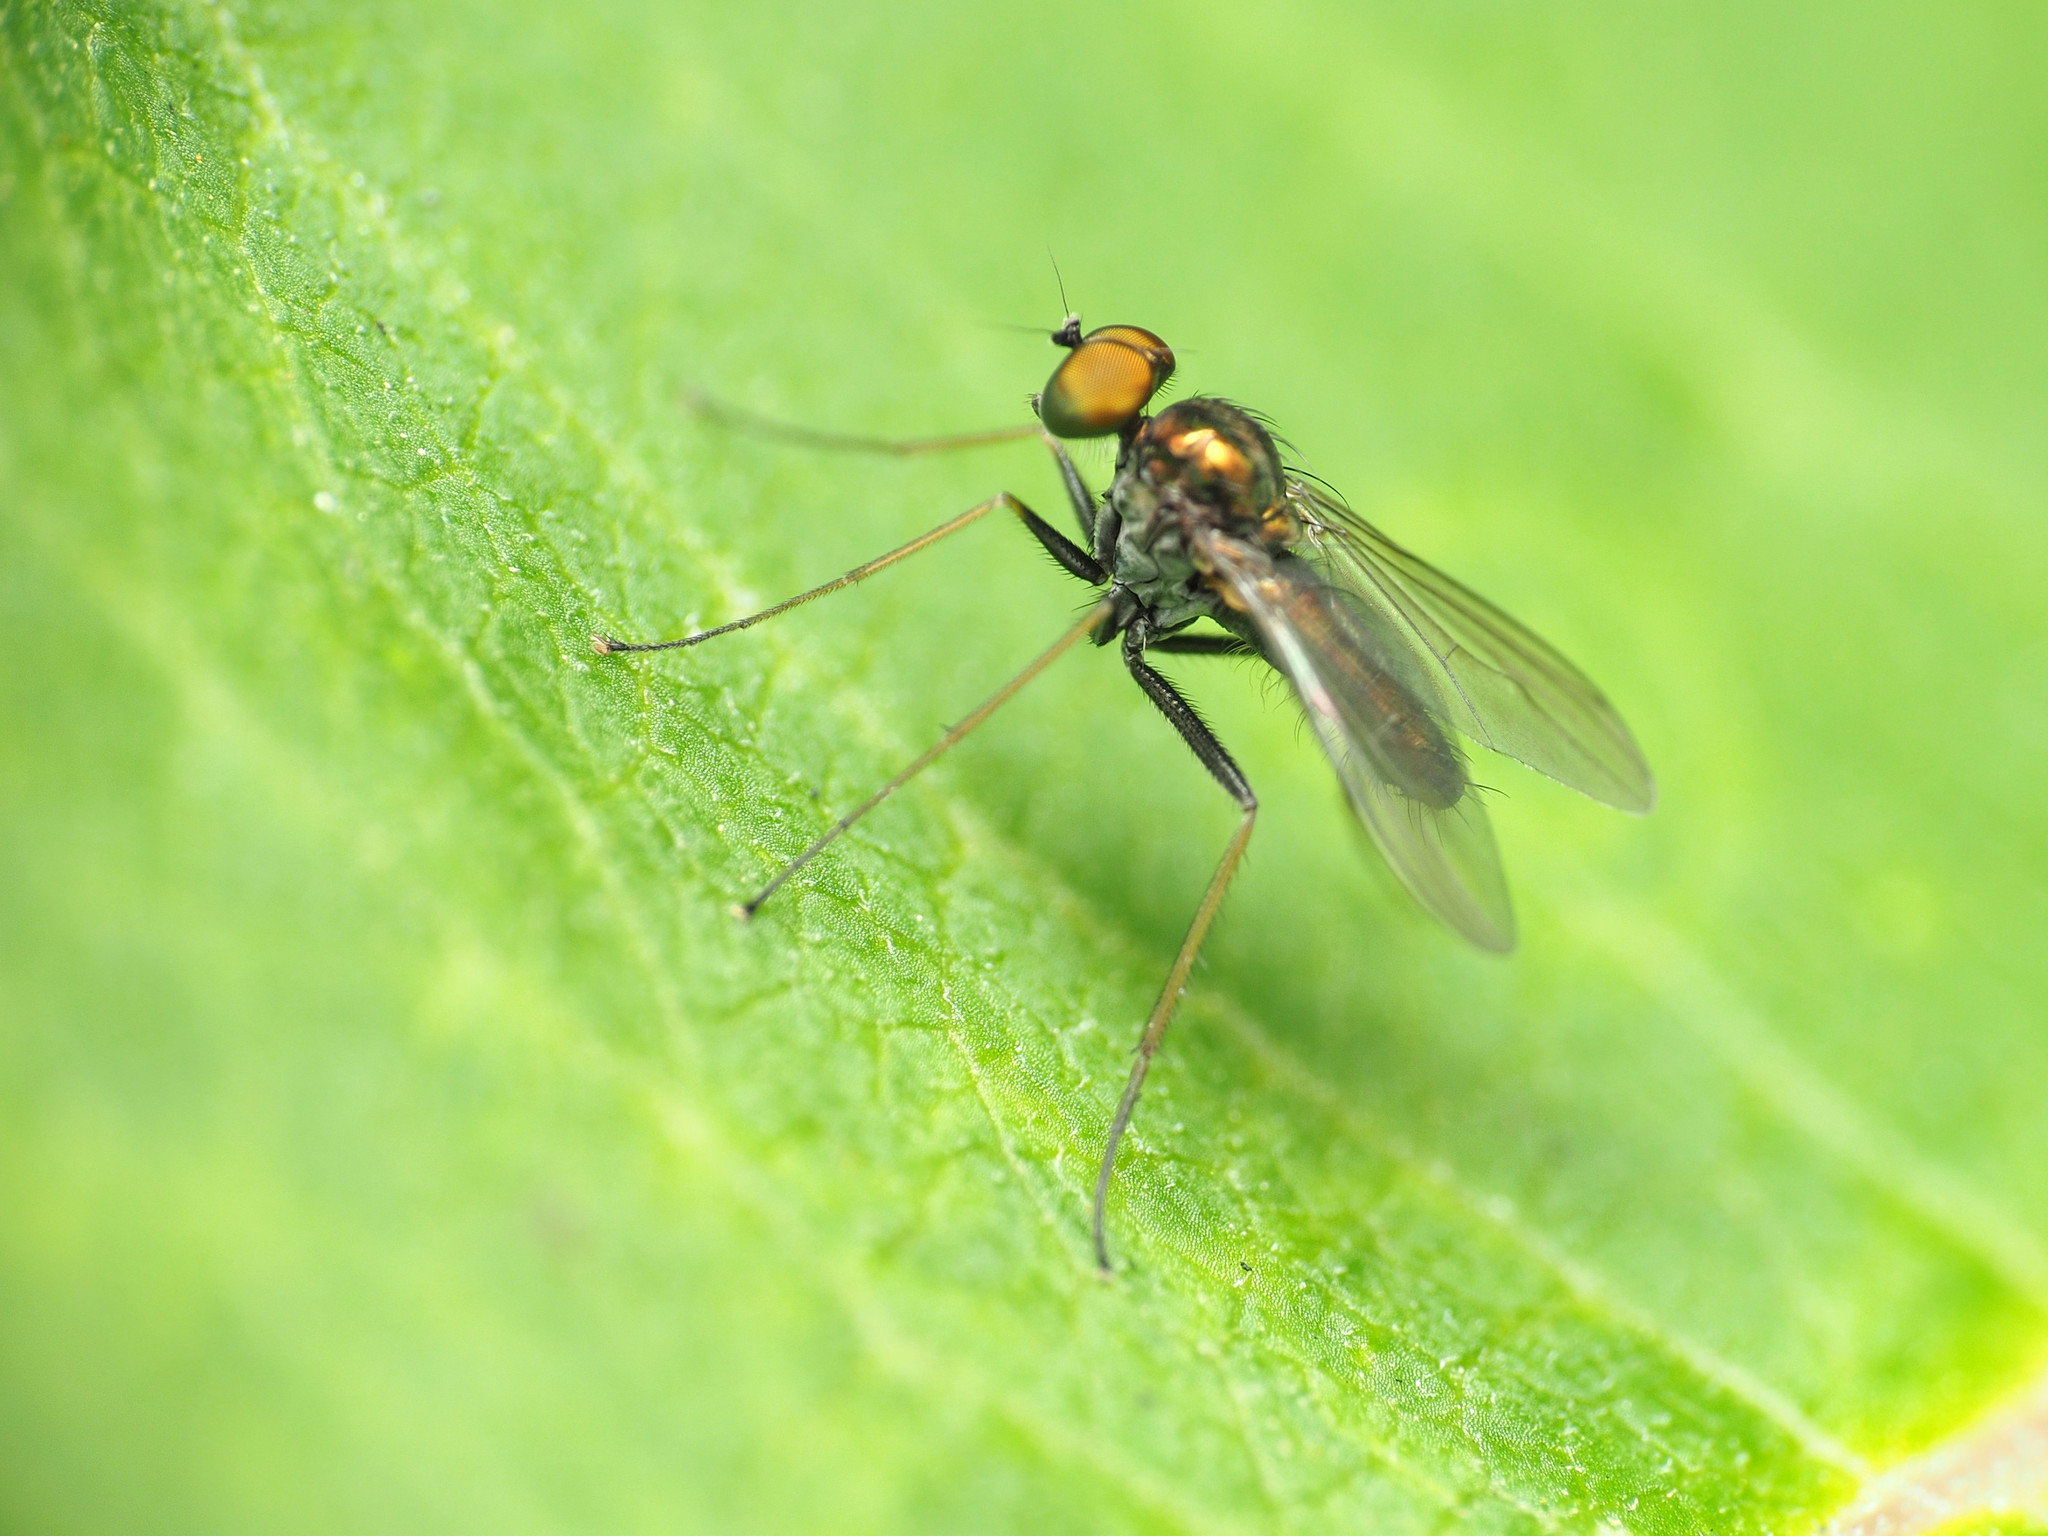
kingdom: Animalia
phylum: Arthropoda
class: Insecta
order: Diptera
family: Dolichopodidae
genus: Chrysotus
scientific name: Chrysotus spectabilis
